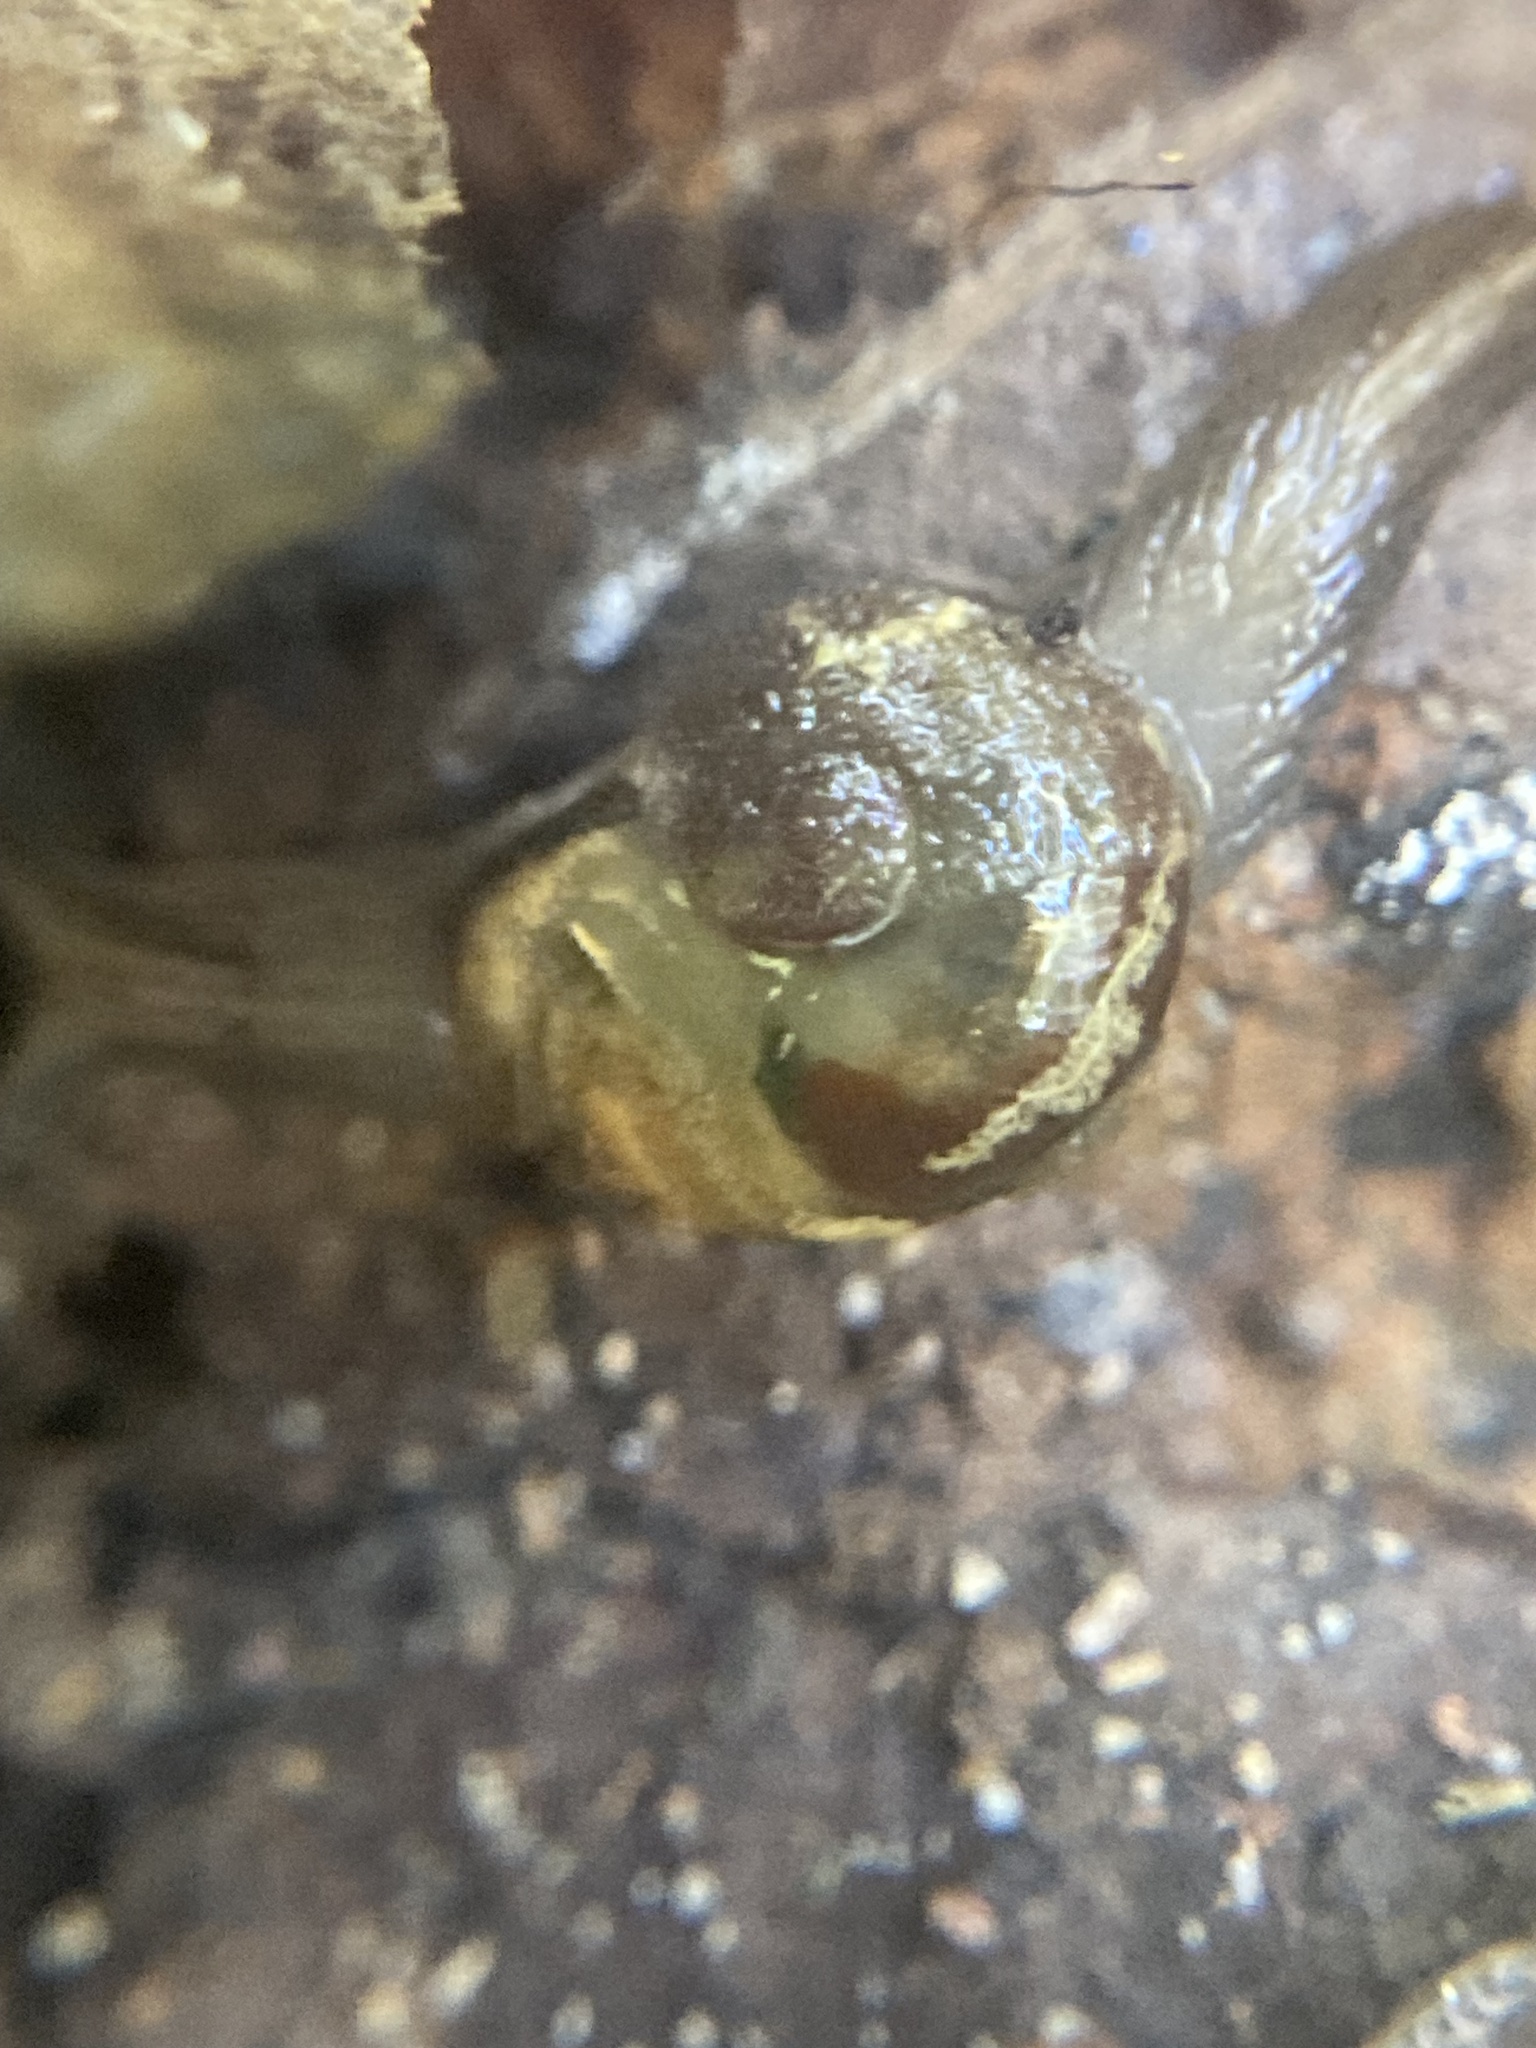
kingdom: Animalia
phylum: Mollusca
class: Gastropoda
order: Stylommatophora
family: Helicarionidae
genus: Helicarion
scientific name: Helicarion mastersi
